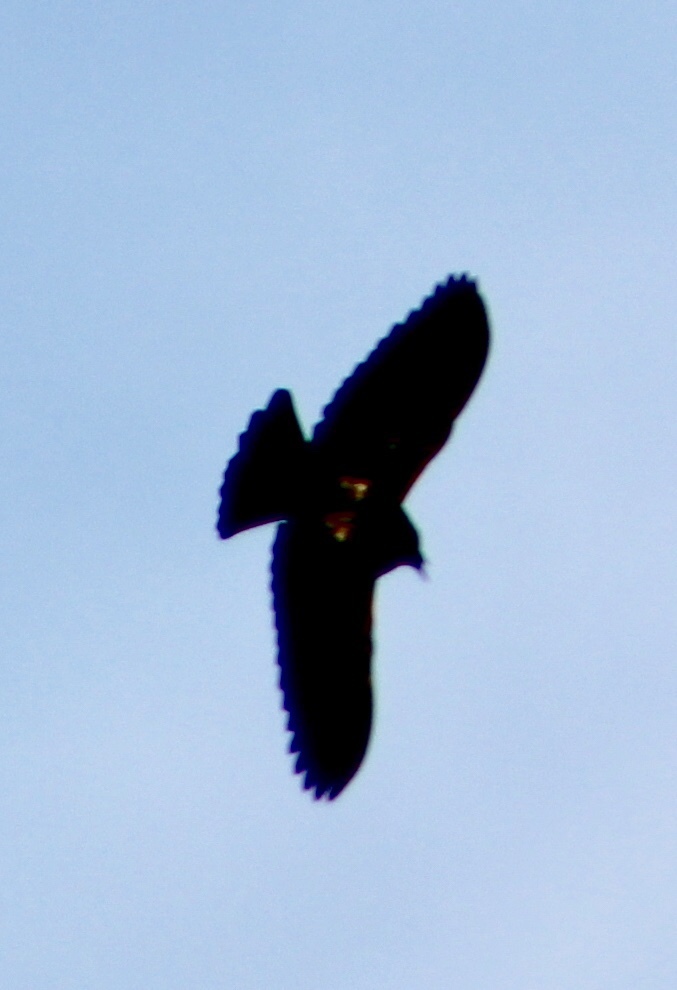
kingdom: Animalia
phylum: Chordata
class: Aves
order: Passeriformes
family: Icteridae
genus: Agelaius
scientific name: Agelaius phoeniceus
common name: Red-winged blackbird
